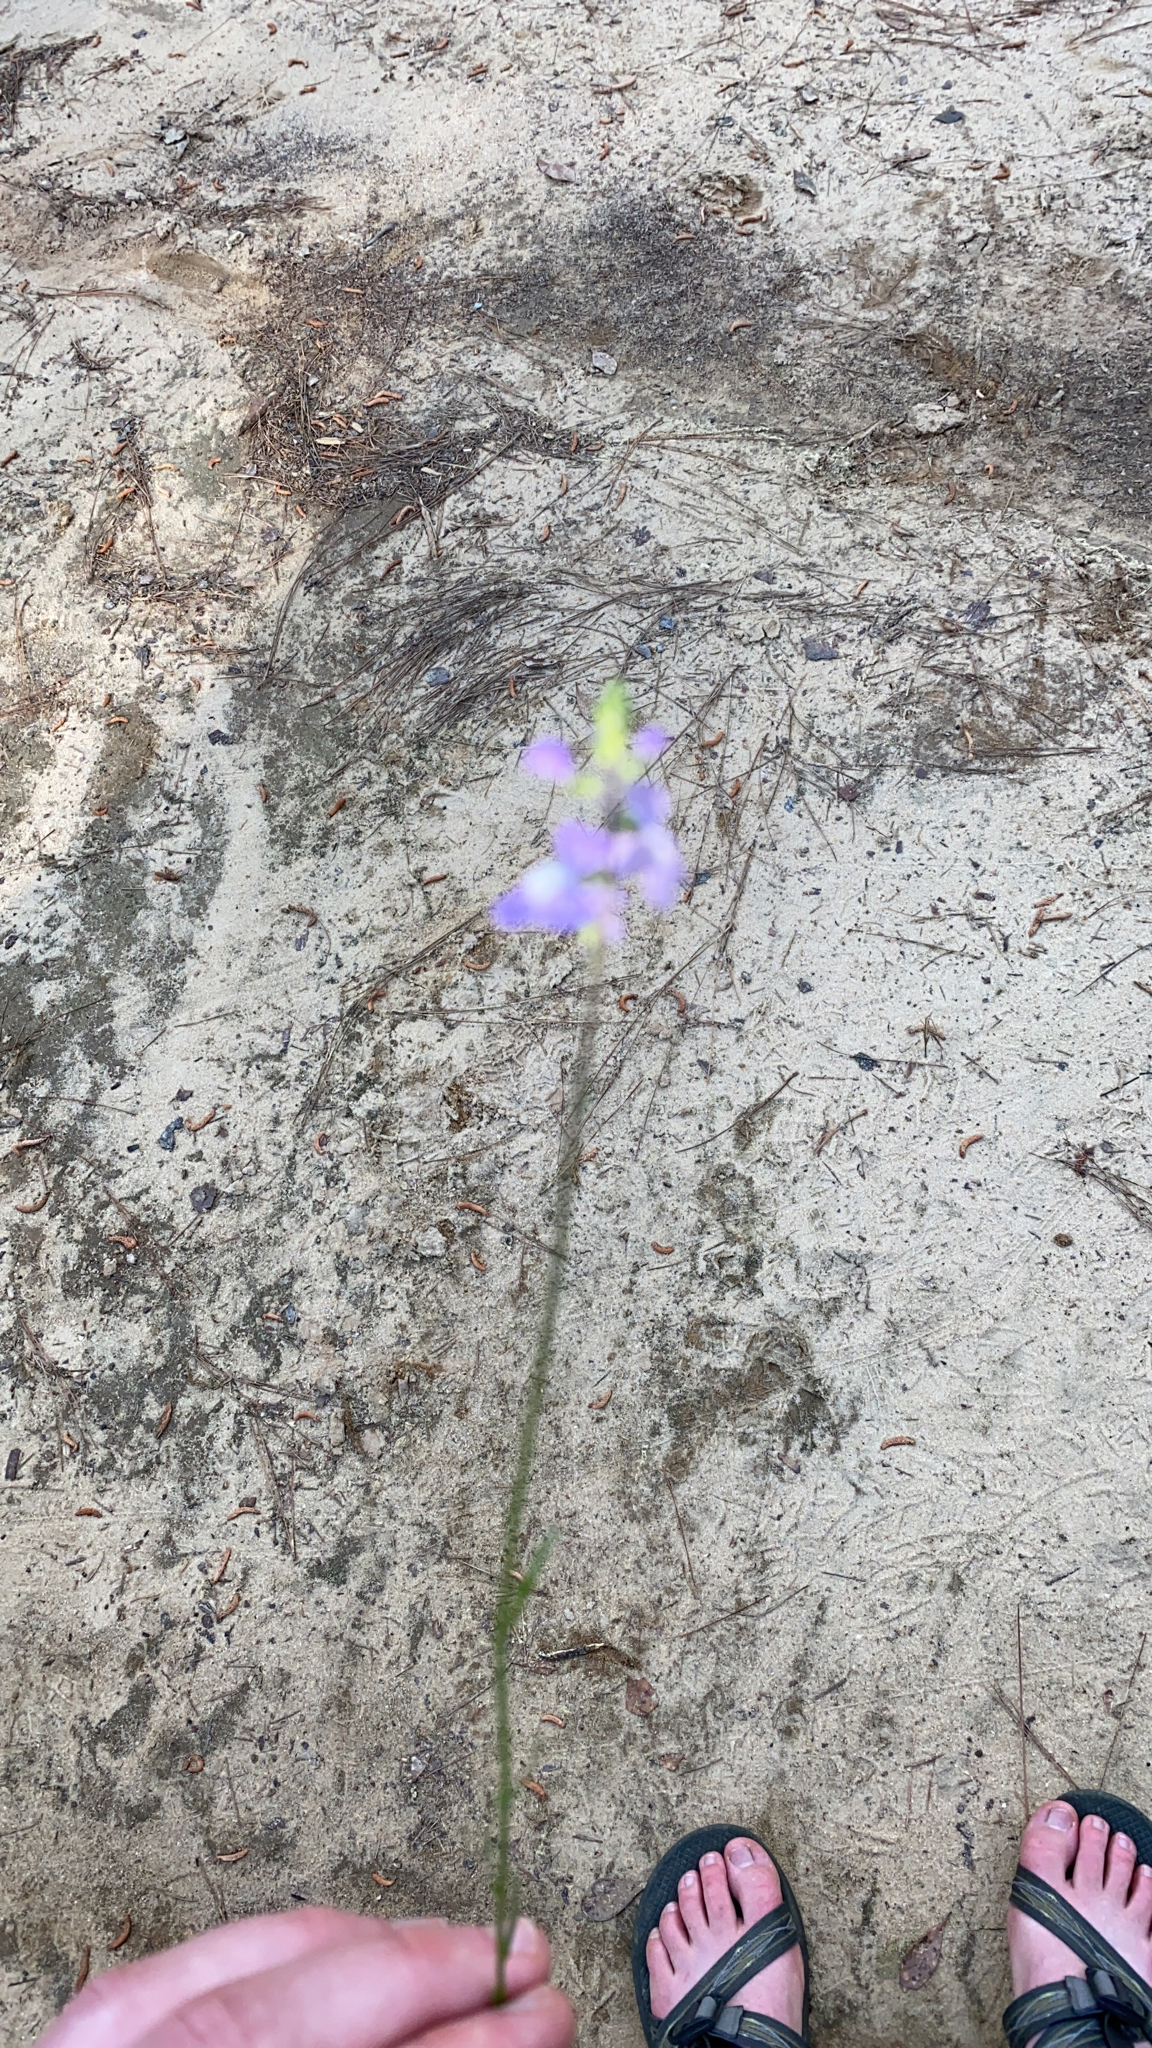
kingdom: Plantae
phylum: Tracheophyta
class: Magnoliopsida
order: Lamiales
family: Plantaginaceae
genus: Nuttallanthus
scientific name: Nuttallanthus canadensis
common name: Blue toadflax
